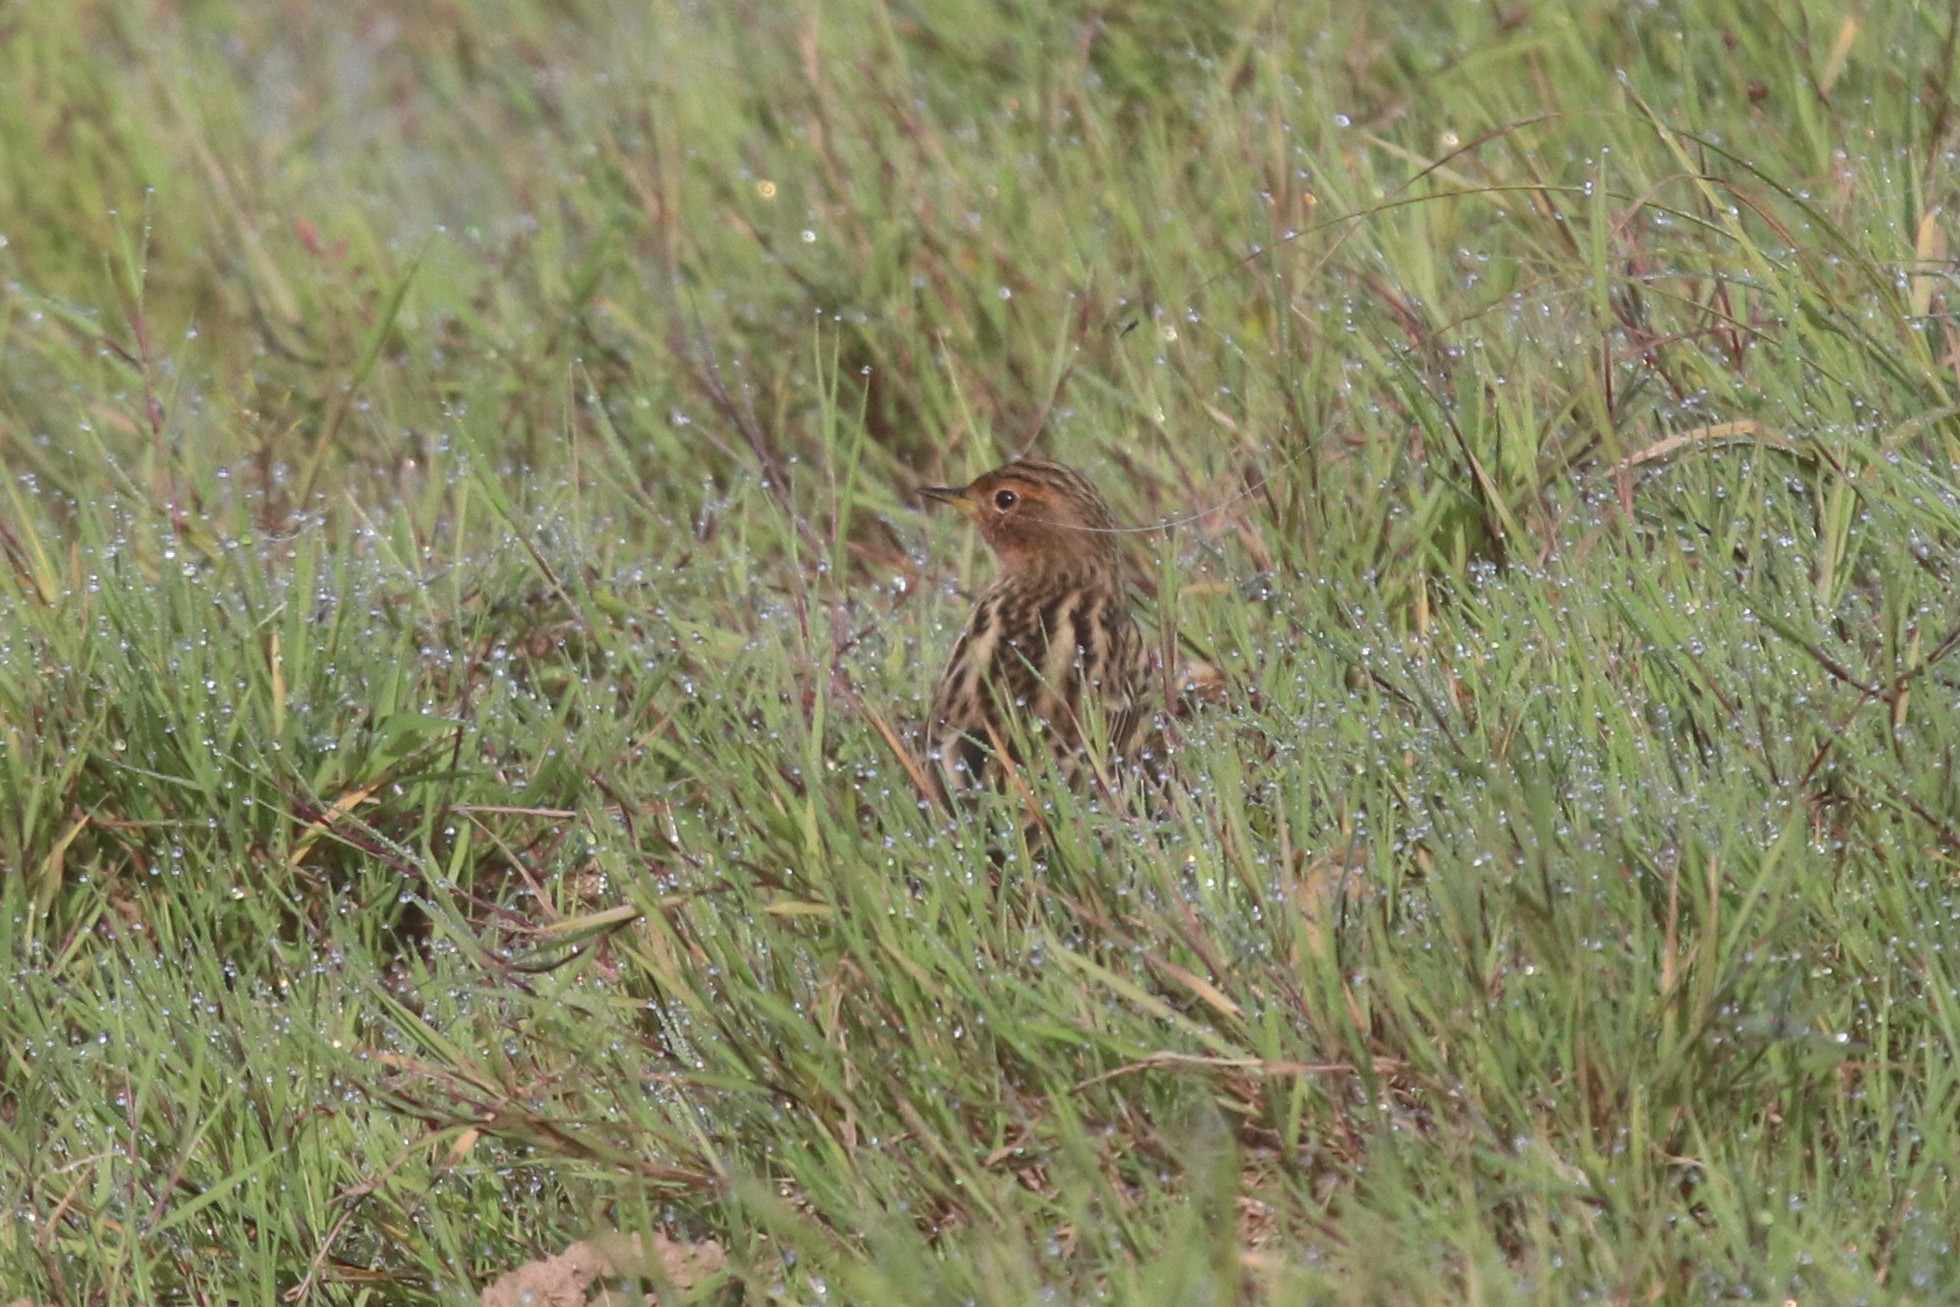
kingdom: Animalia
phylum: Chordata
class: Aves
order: Passeriformes
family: Motacillidae
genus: Anthus
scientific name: Anthus cervinus
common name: Red-throated pipit
